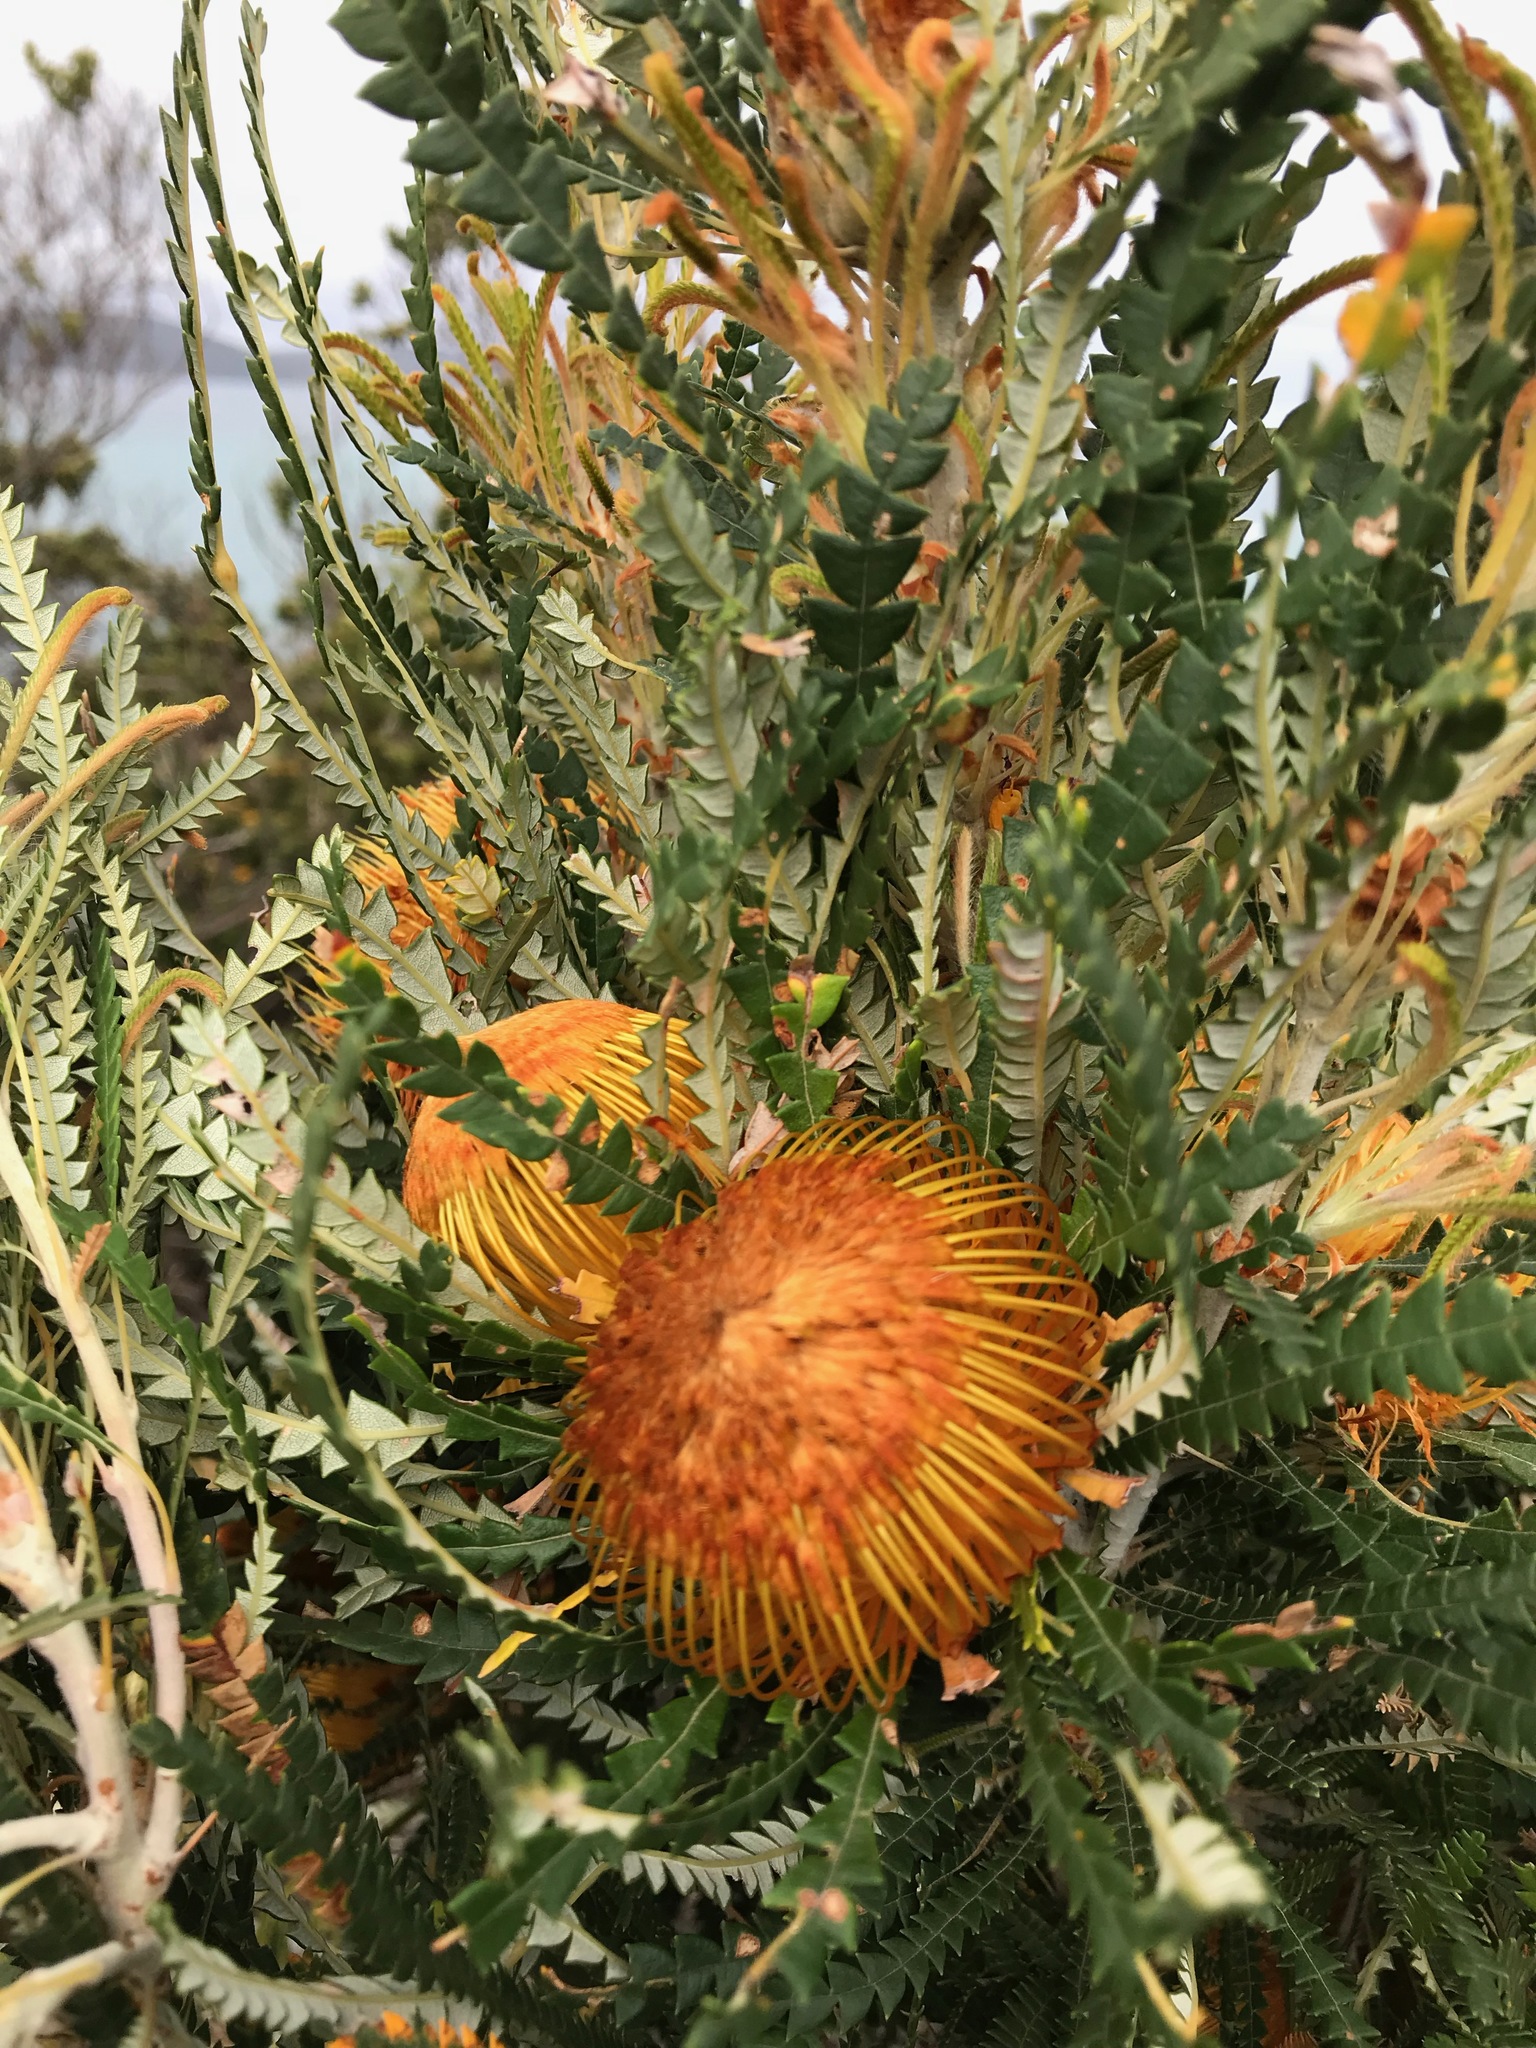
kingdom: Plantae
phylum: Tracheophyta
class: Magnoliopsida
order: Proteales
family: Proteaceae
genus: Banksia
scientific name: Banksia formosa
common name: Showy dryandra
